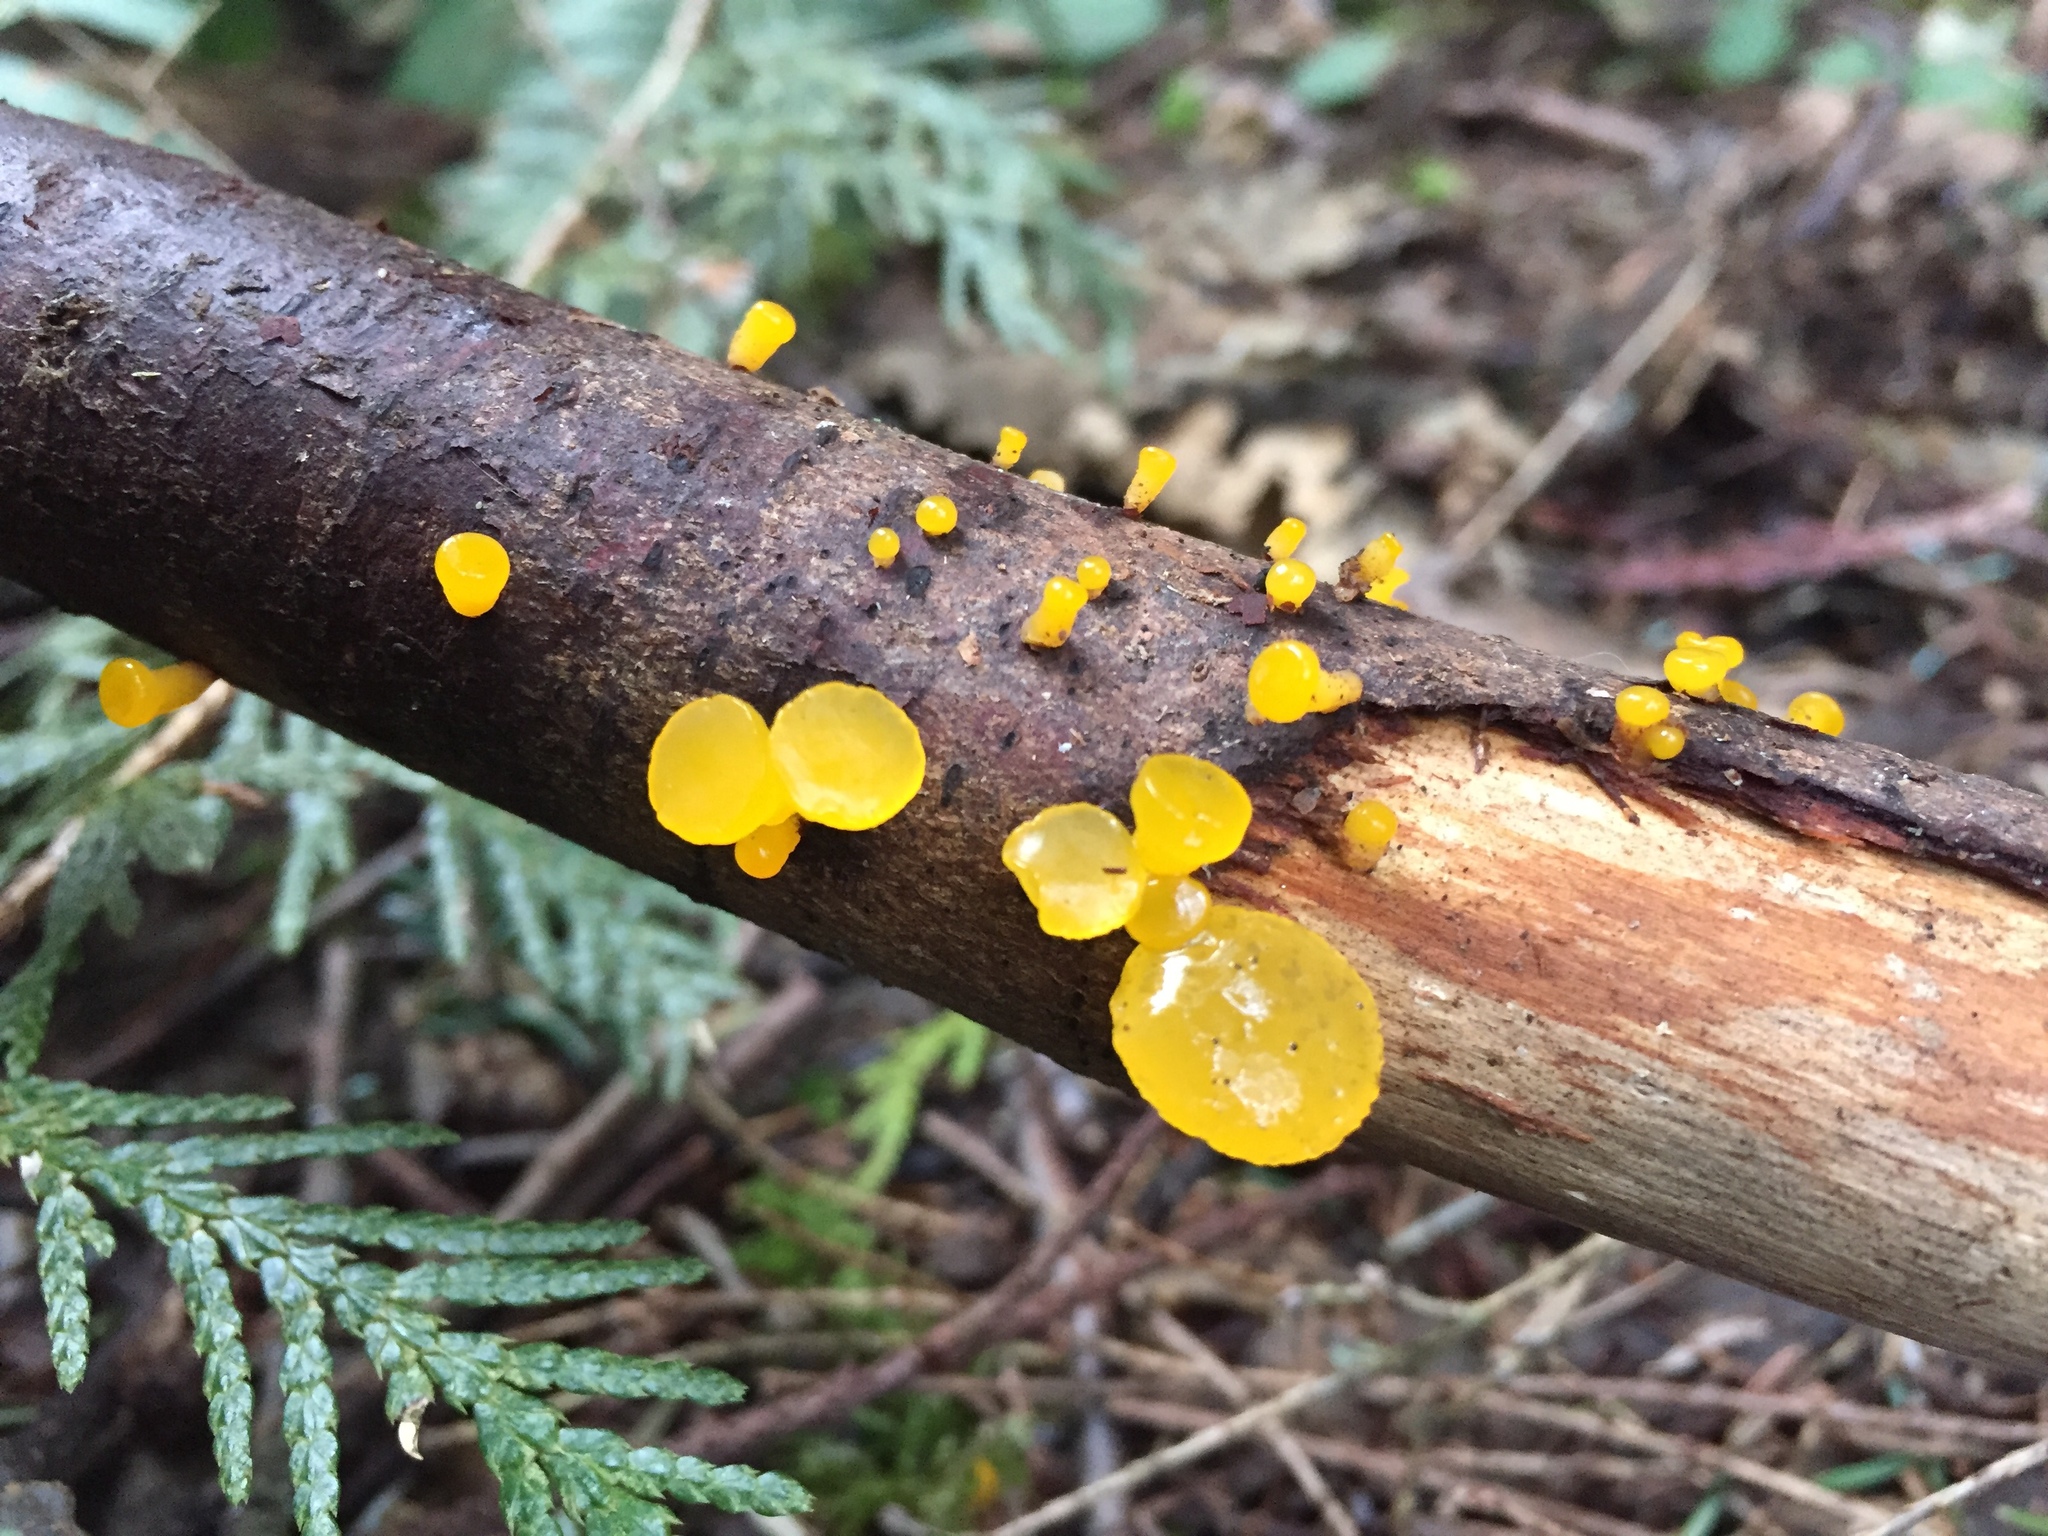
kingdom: Fungi
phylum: Basidiomycota
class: Dacrymycetes
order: Dacrymycetales
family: Dacrymycetaceae
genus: Guepiniopsis
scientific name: Guepiniopsis alpina
